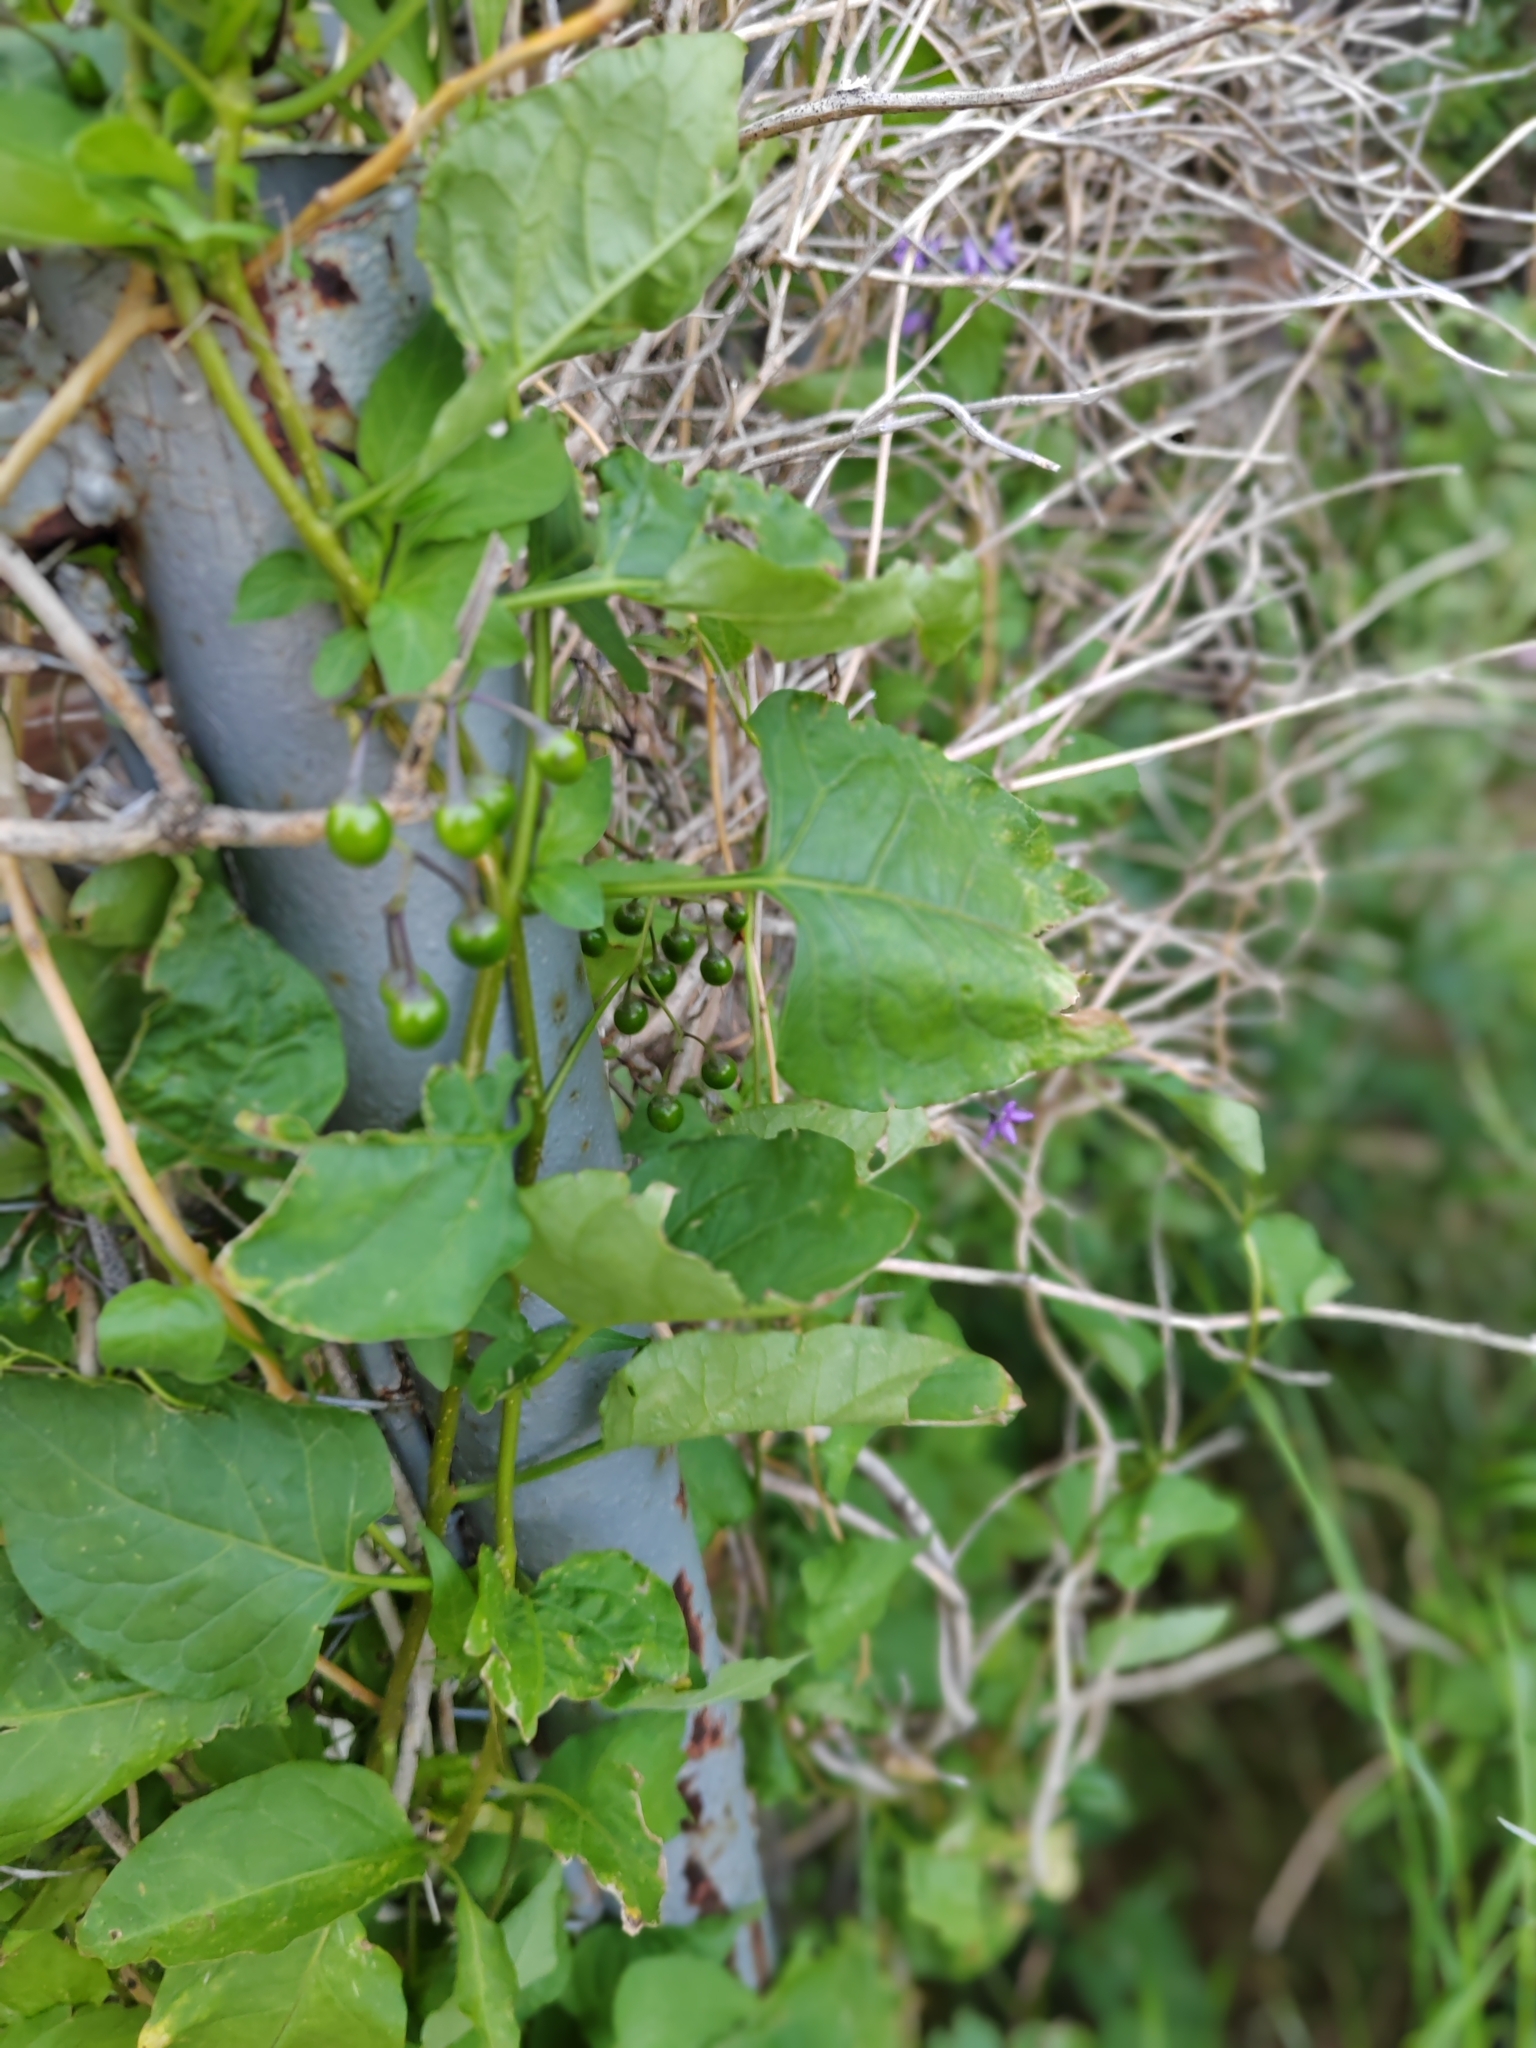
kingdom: Plantae
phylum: Tracheophyta
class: Magnoliopsida
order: Solanales
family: Solanaceae
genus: Solanum
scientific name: Solanum dulcamara
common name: Climbing nightshade
